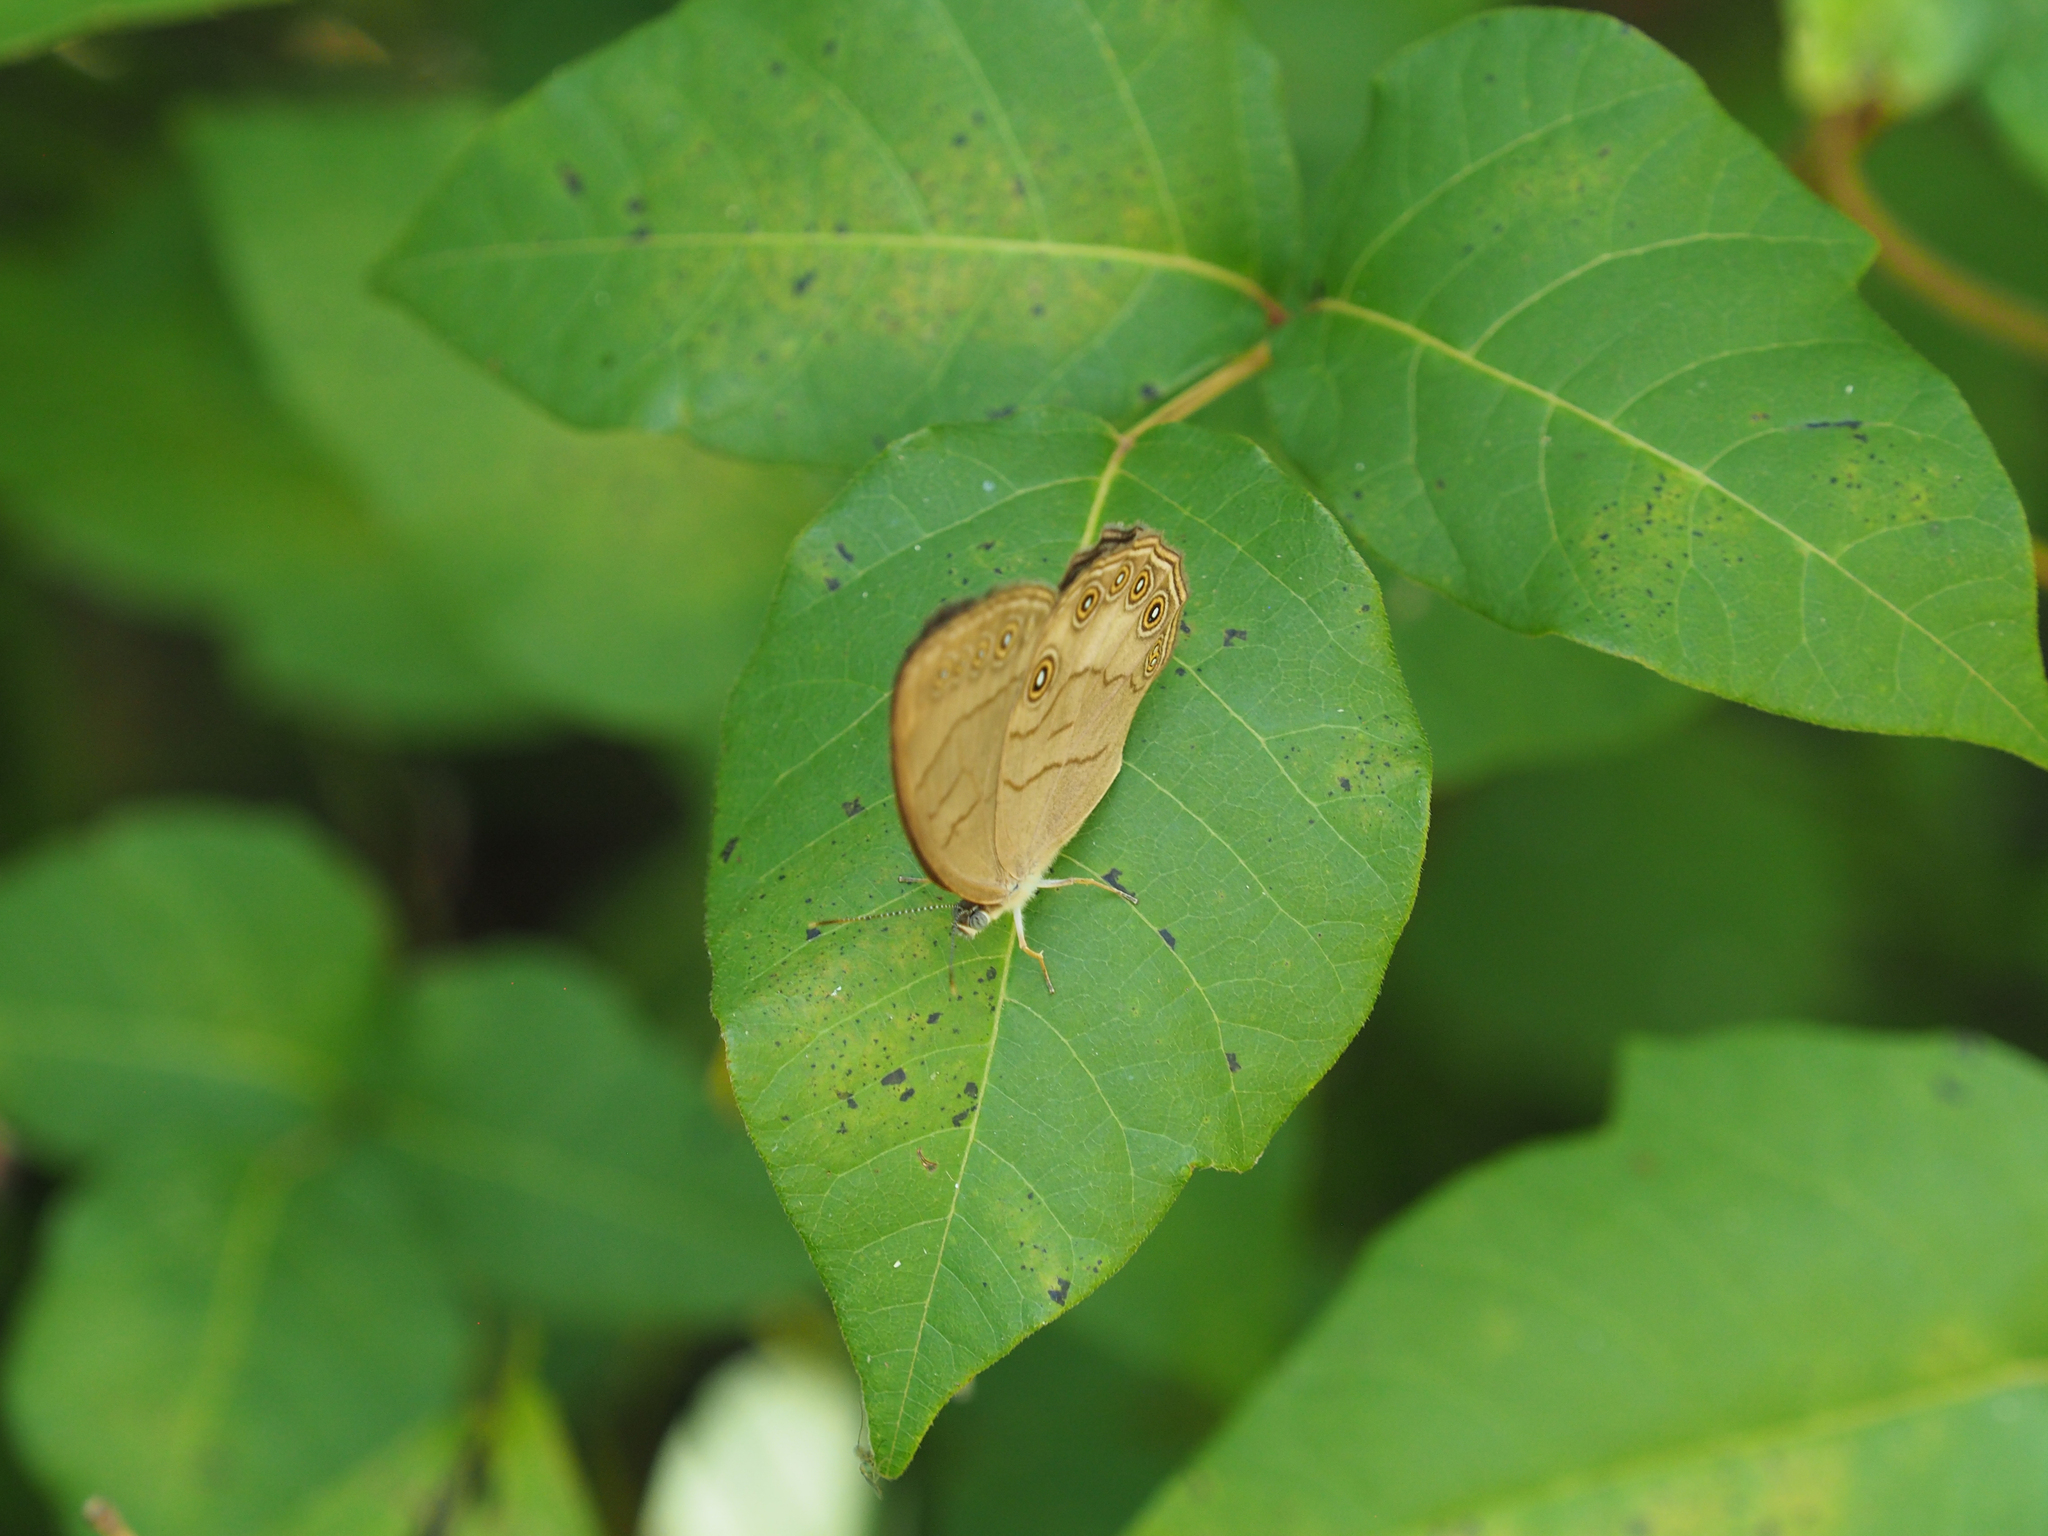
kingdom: Animalia
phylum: Arthropoda
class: Insecta
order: Lepidoptera
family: Nymphalidae
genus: Lethe
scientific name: Lethe eurydice
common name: Eyed brown
